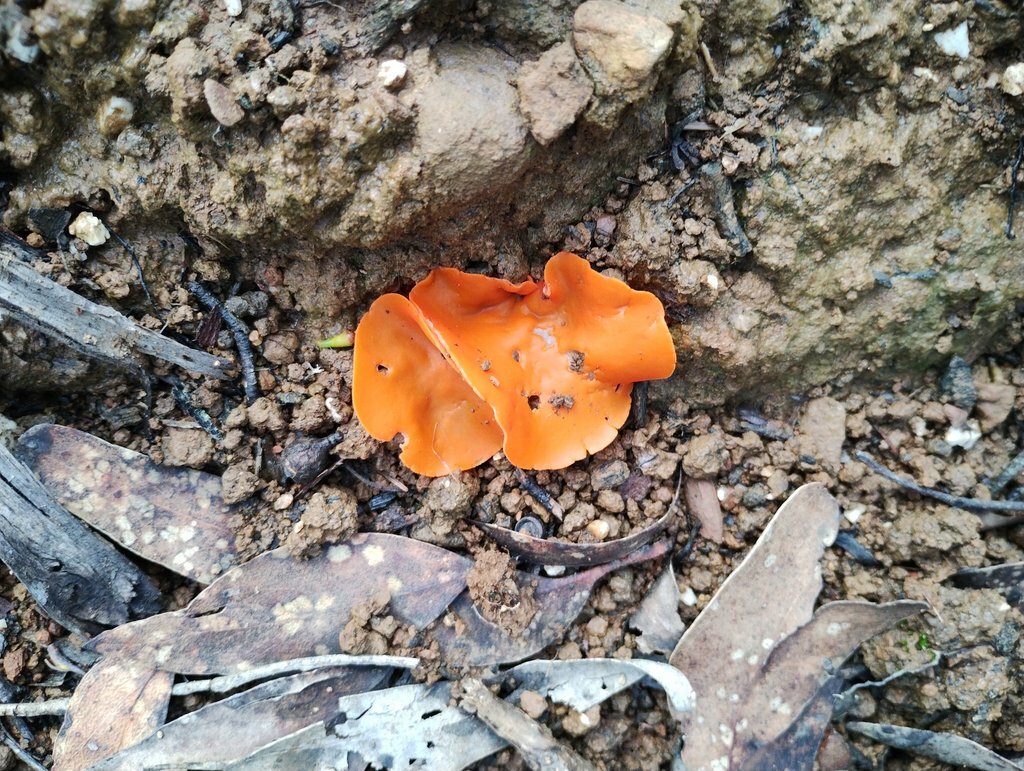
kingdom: Fungi
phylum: Ascomycota
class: Pezizomycetes
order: Pezizales
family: Pyronemataceae
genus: Aleuria
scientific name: Aleuria aurantia
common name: Orange peel fungus
